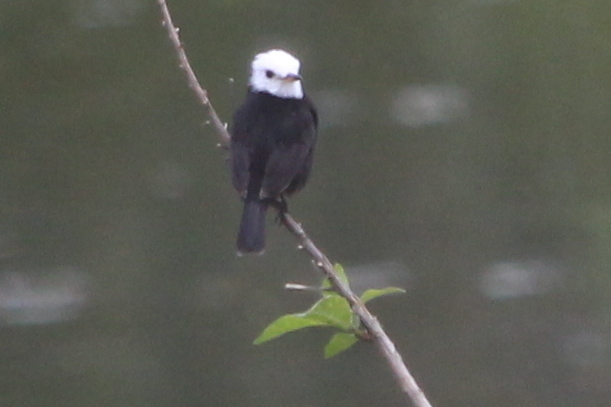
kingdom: Animalia
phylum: Chordata
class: Aves
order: Passeriformes
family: Tyrannidae
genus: Arundinicola
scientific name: Arundinicola leucocephala
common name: White-headed marsh tyrant
